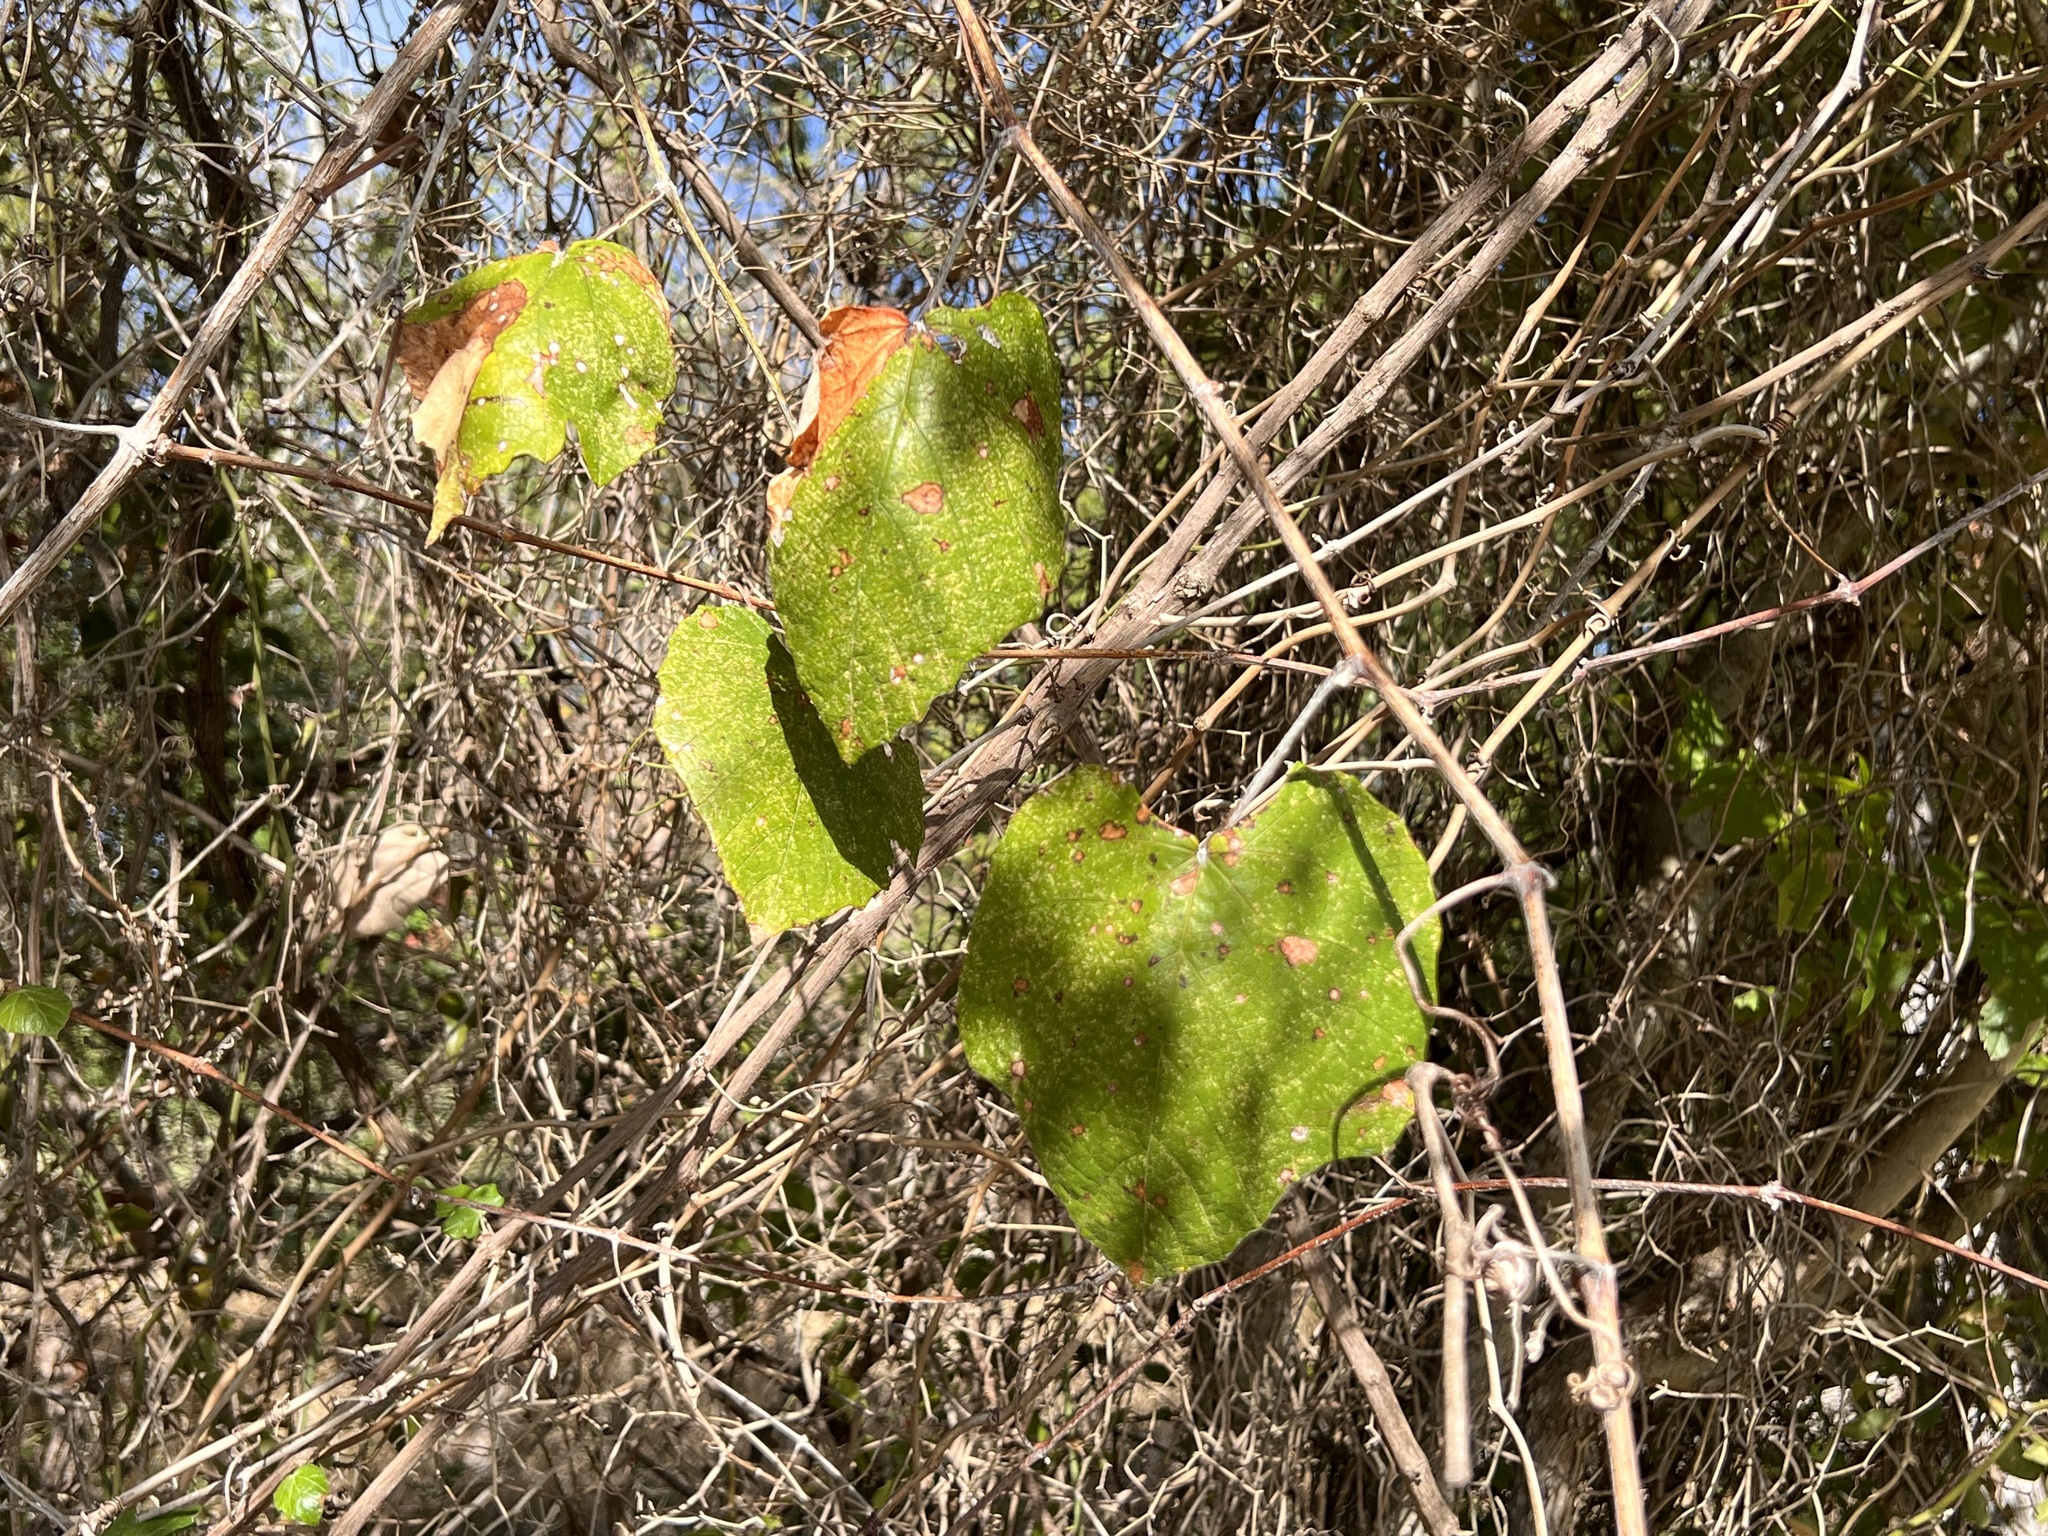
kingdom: Plantae
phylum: Tracheophyta
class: Magnoliopsida
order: Vitales
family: Vitaceae
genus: Vitis
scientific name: Vitis mustangensis
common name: Mustang grape
